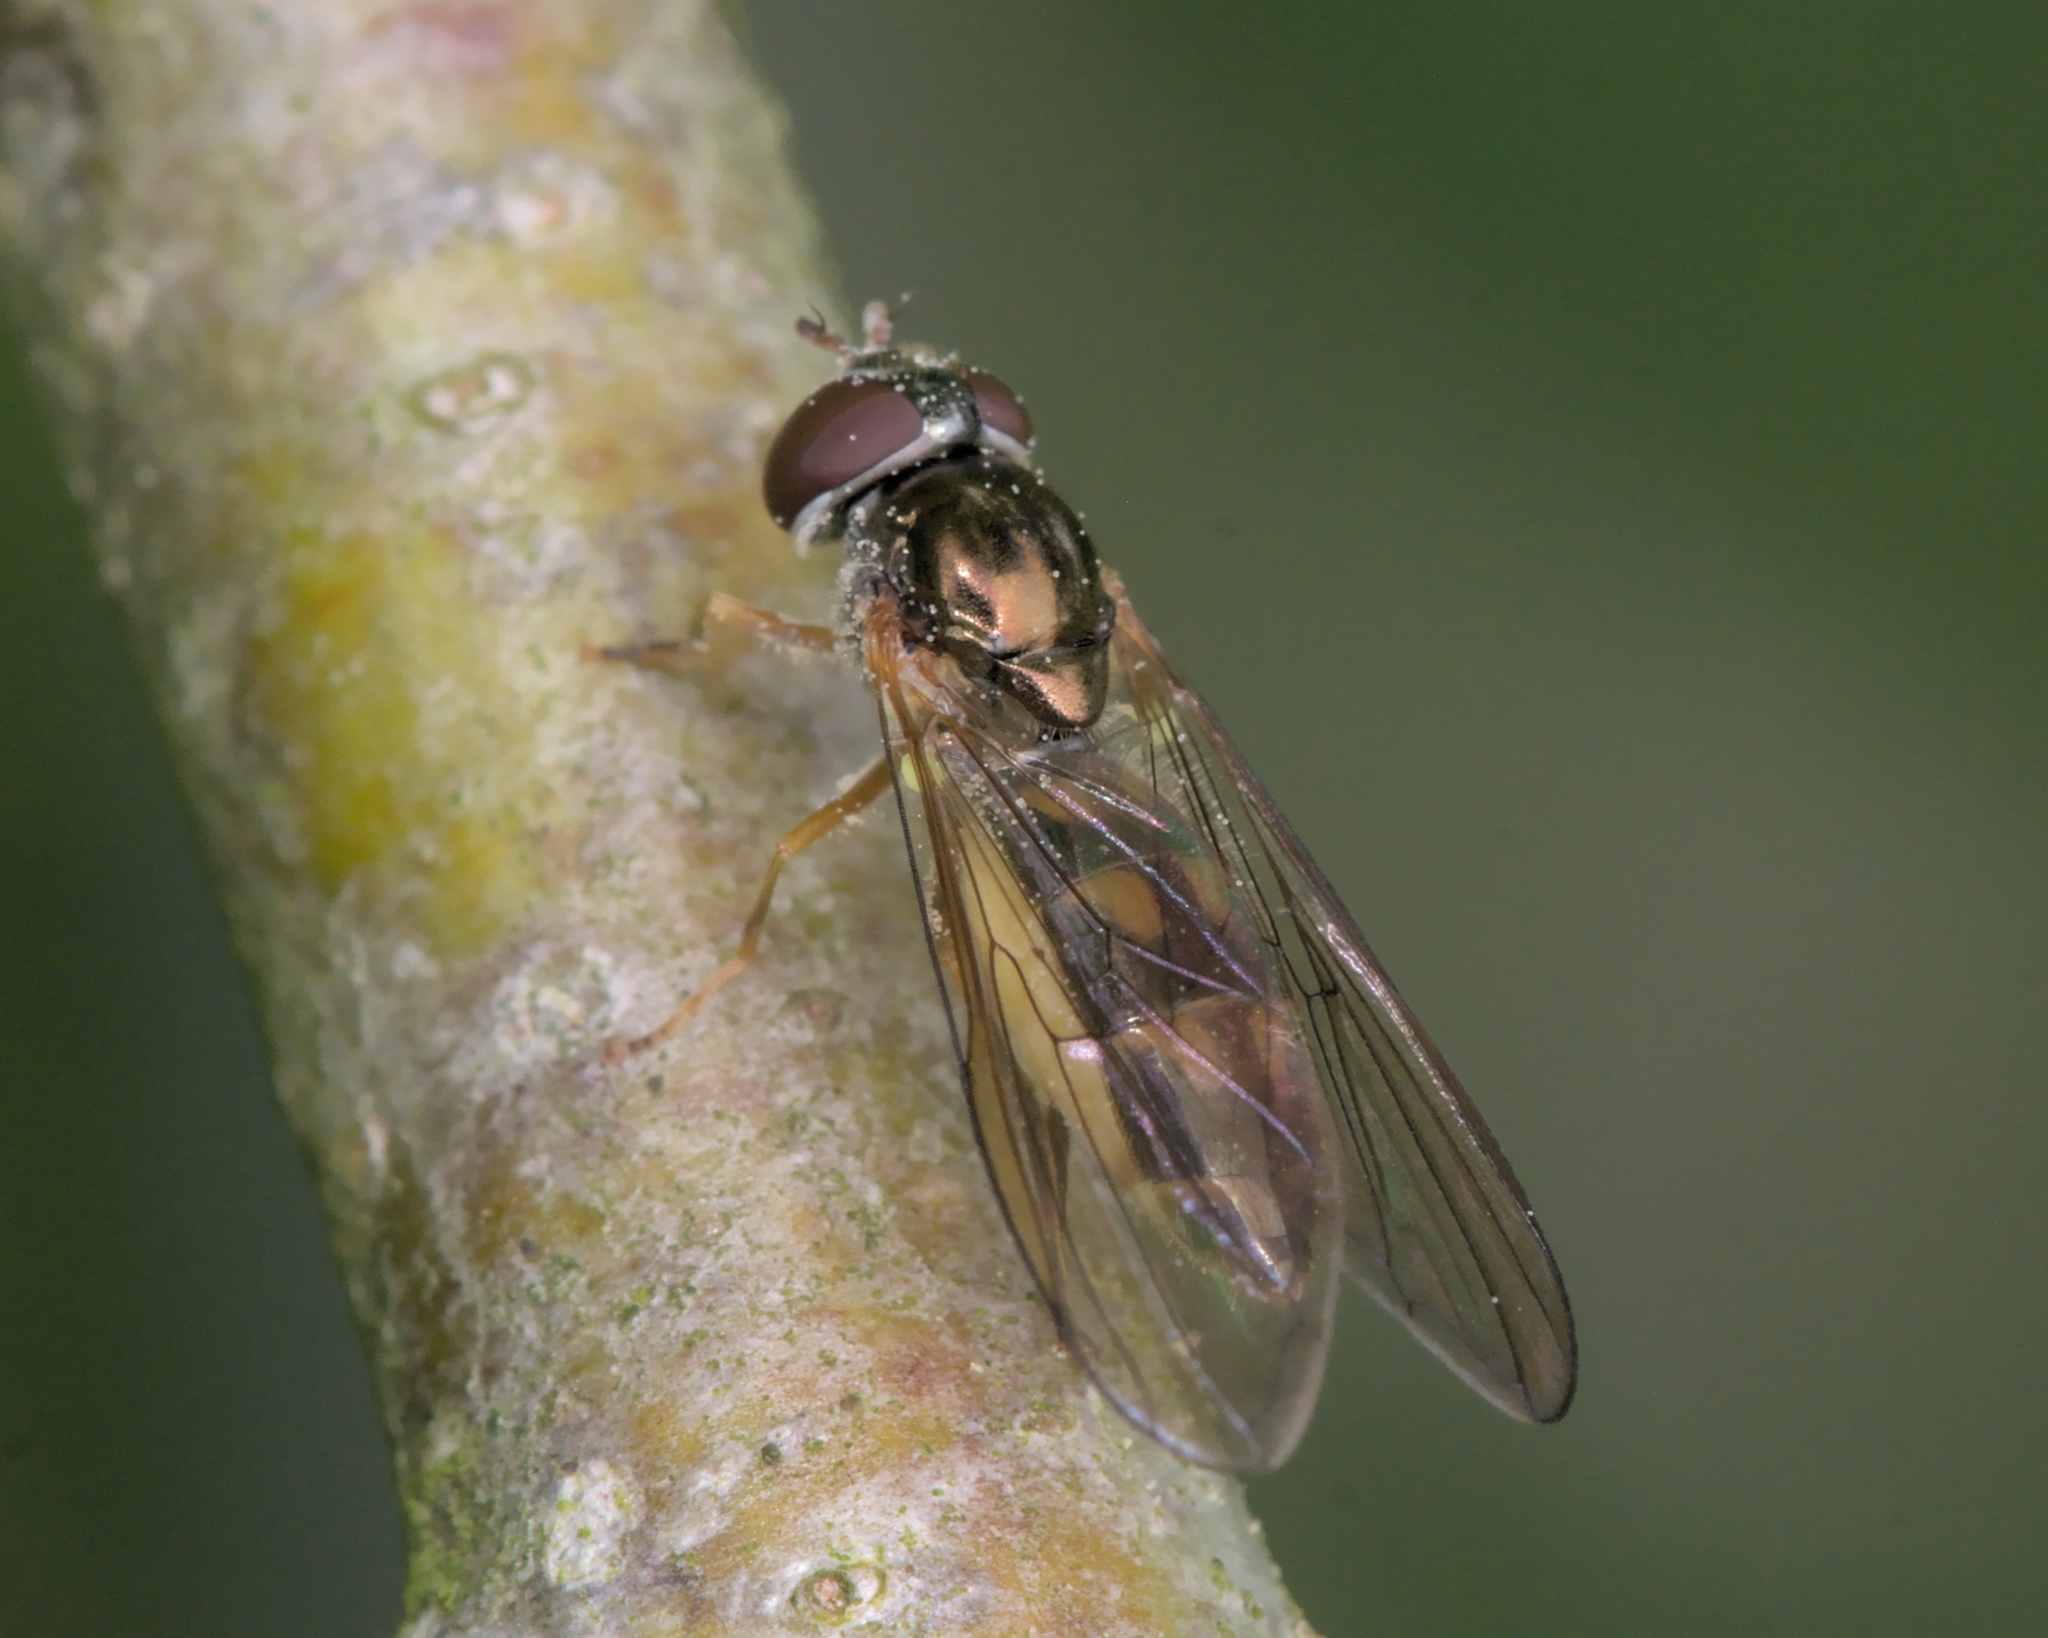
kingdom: Animalia
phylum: Arthropoda
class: Insecta
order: Diptera
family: Syrphidae
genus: Melanostoma
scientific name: Melanostoma
